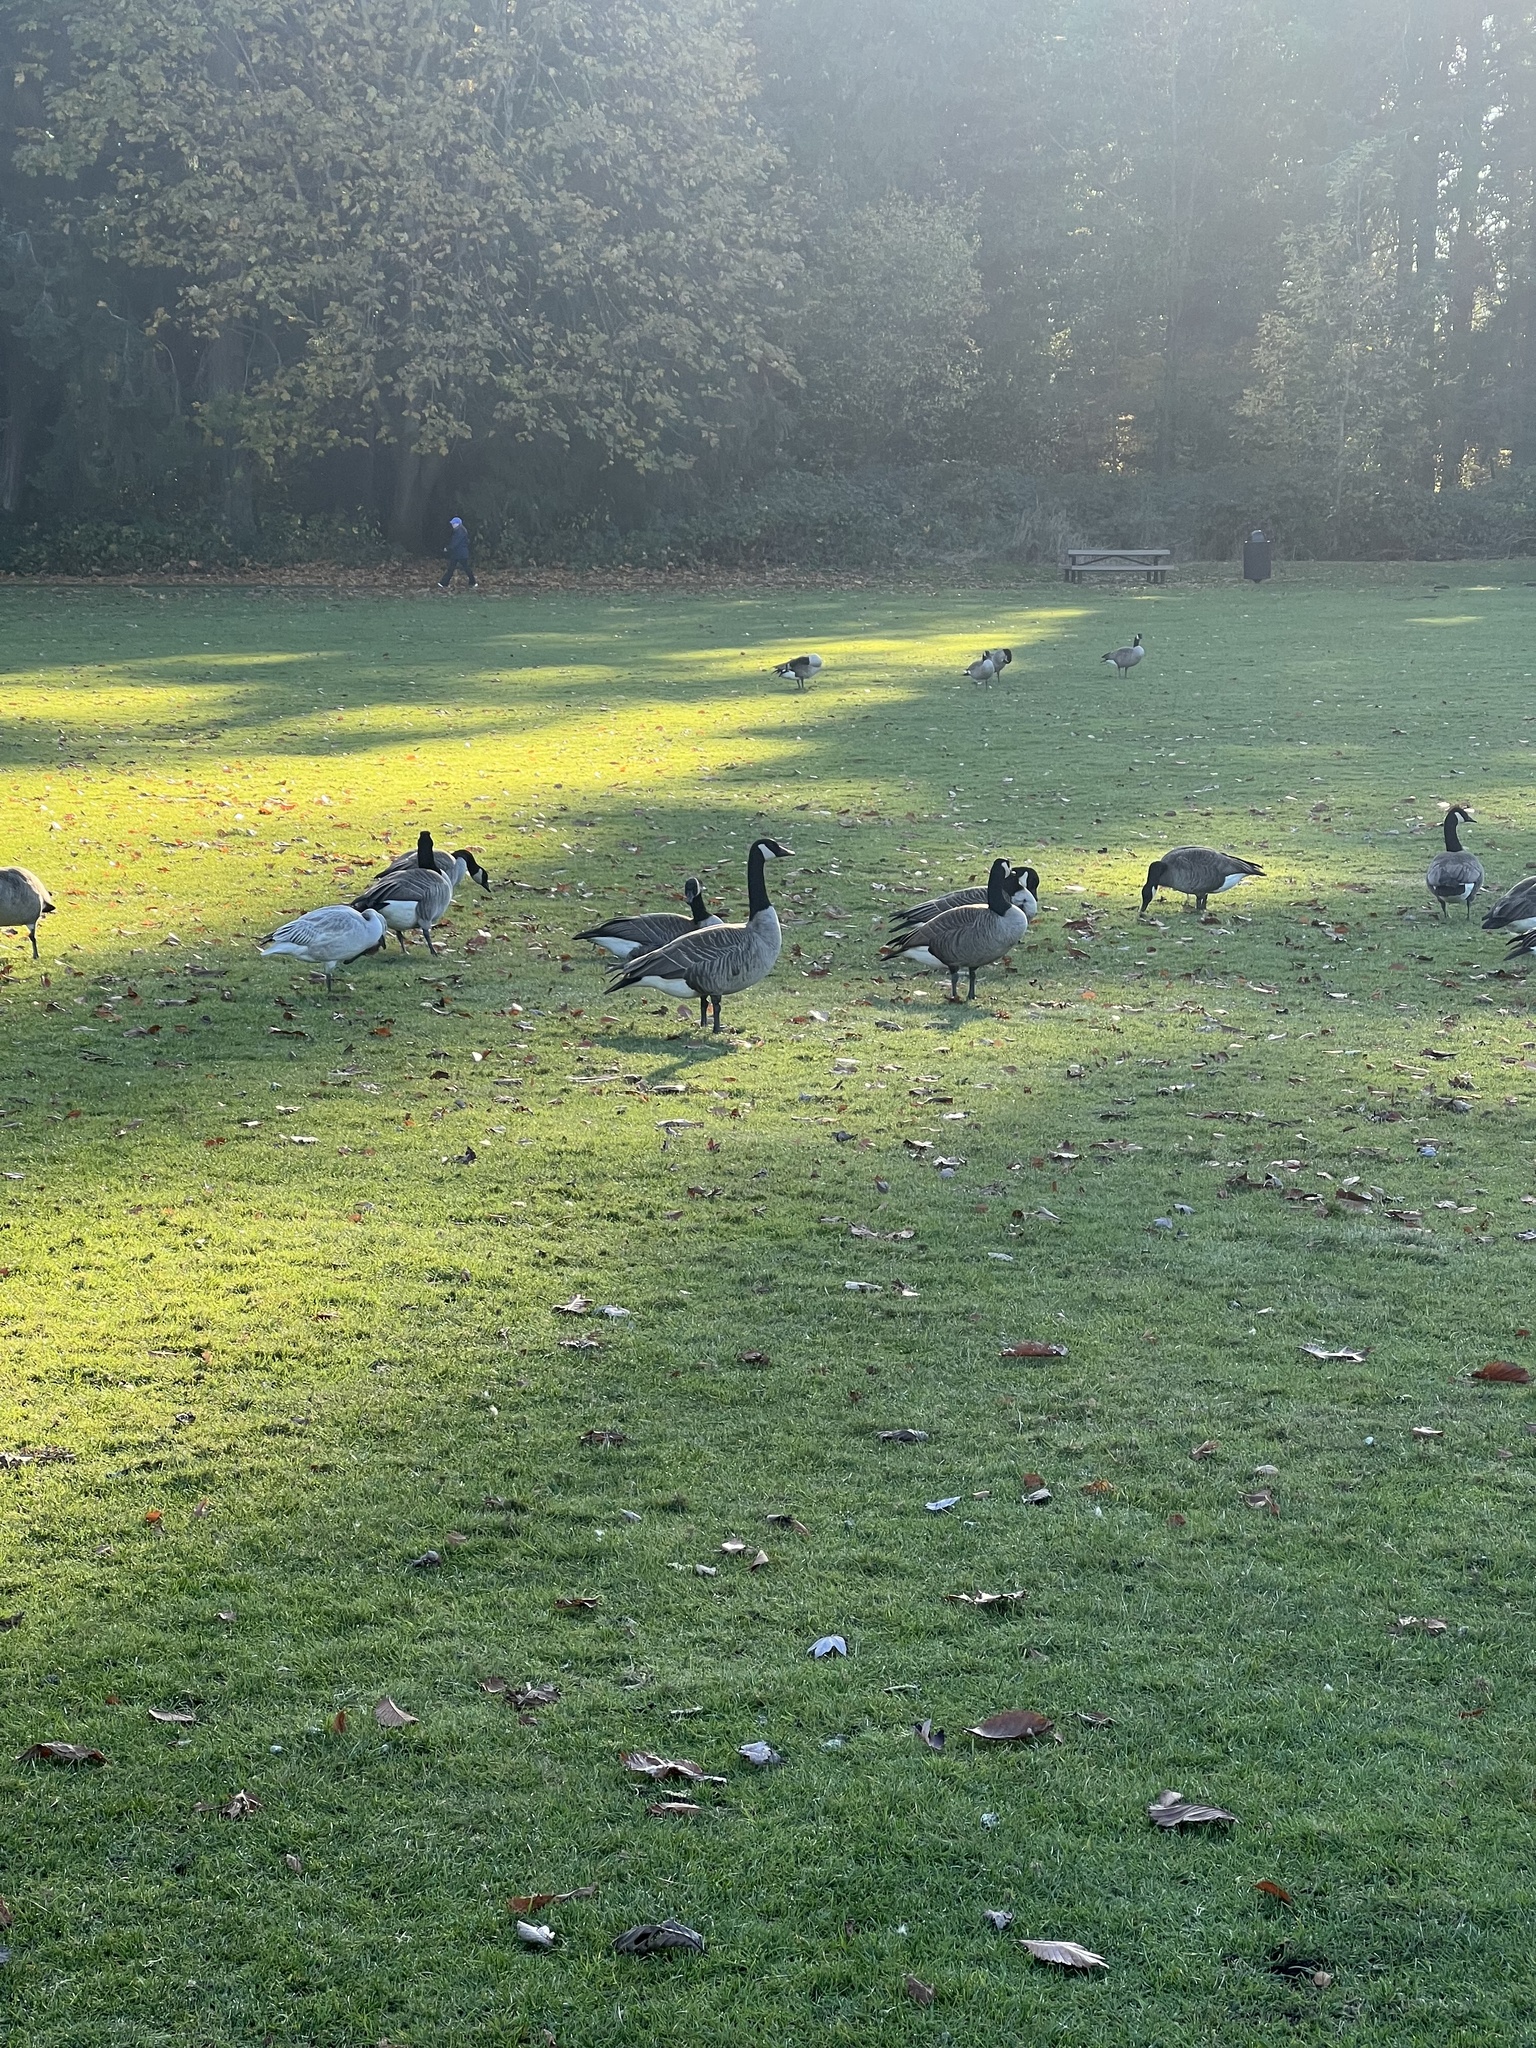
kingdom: Animalia
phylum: Chordata
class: Aves
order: Anseriformes
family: Anatidae
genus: Branta
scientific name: Branta canadensis
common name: Canada goose
